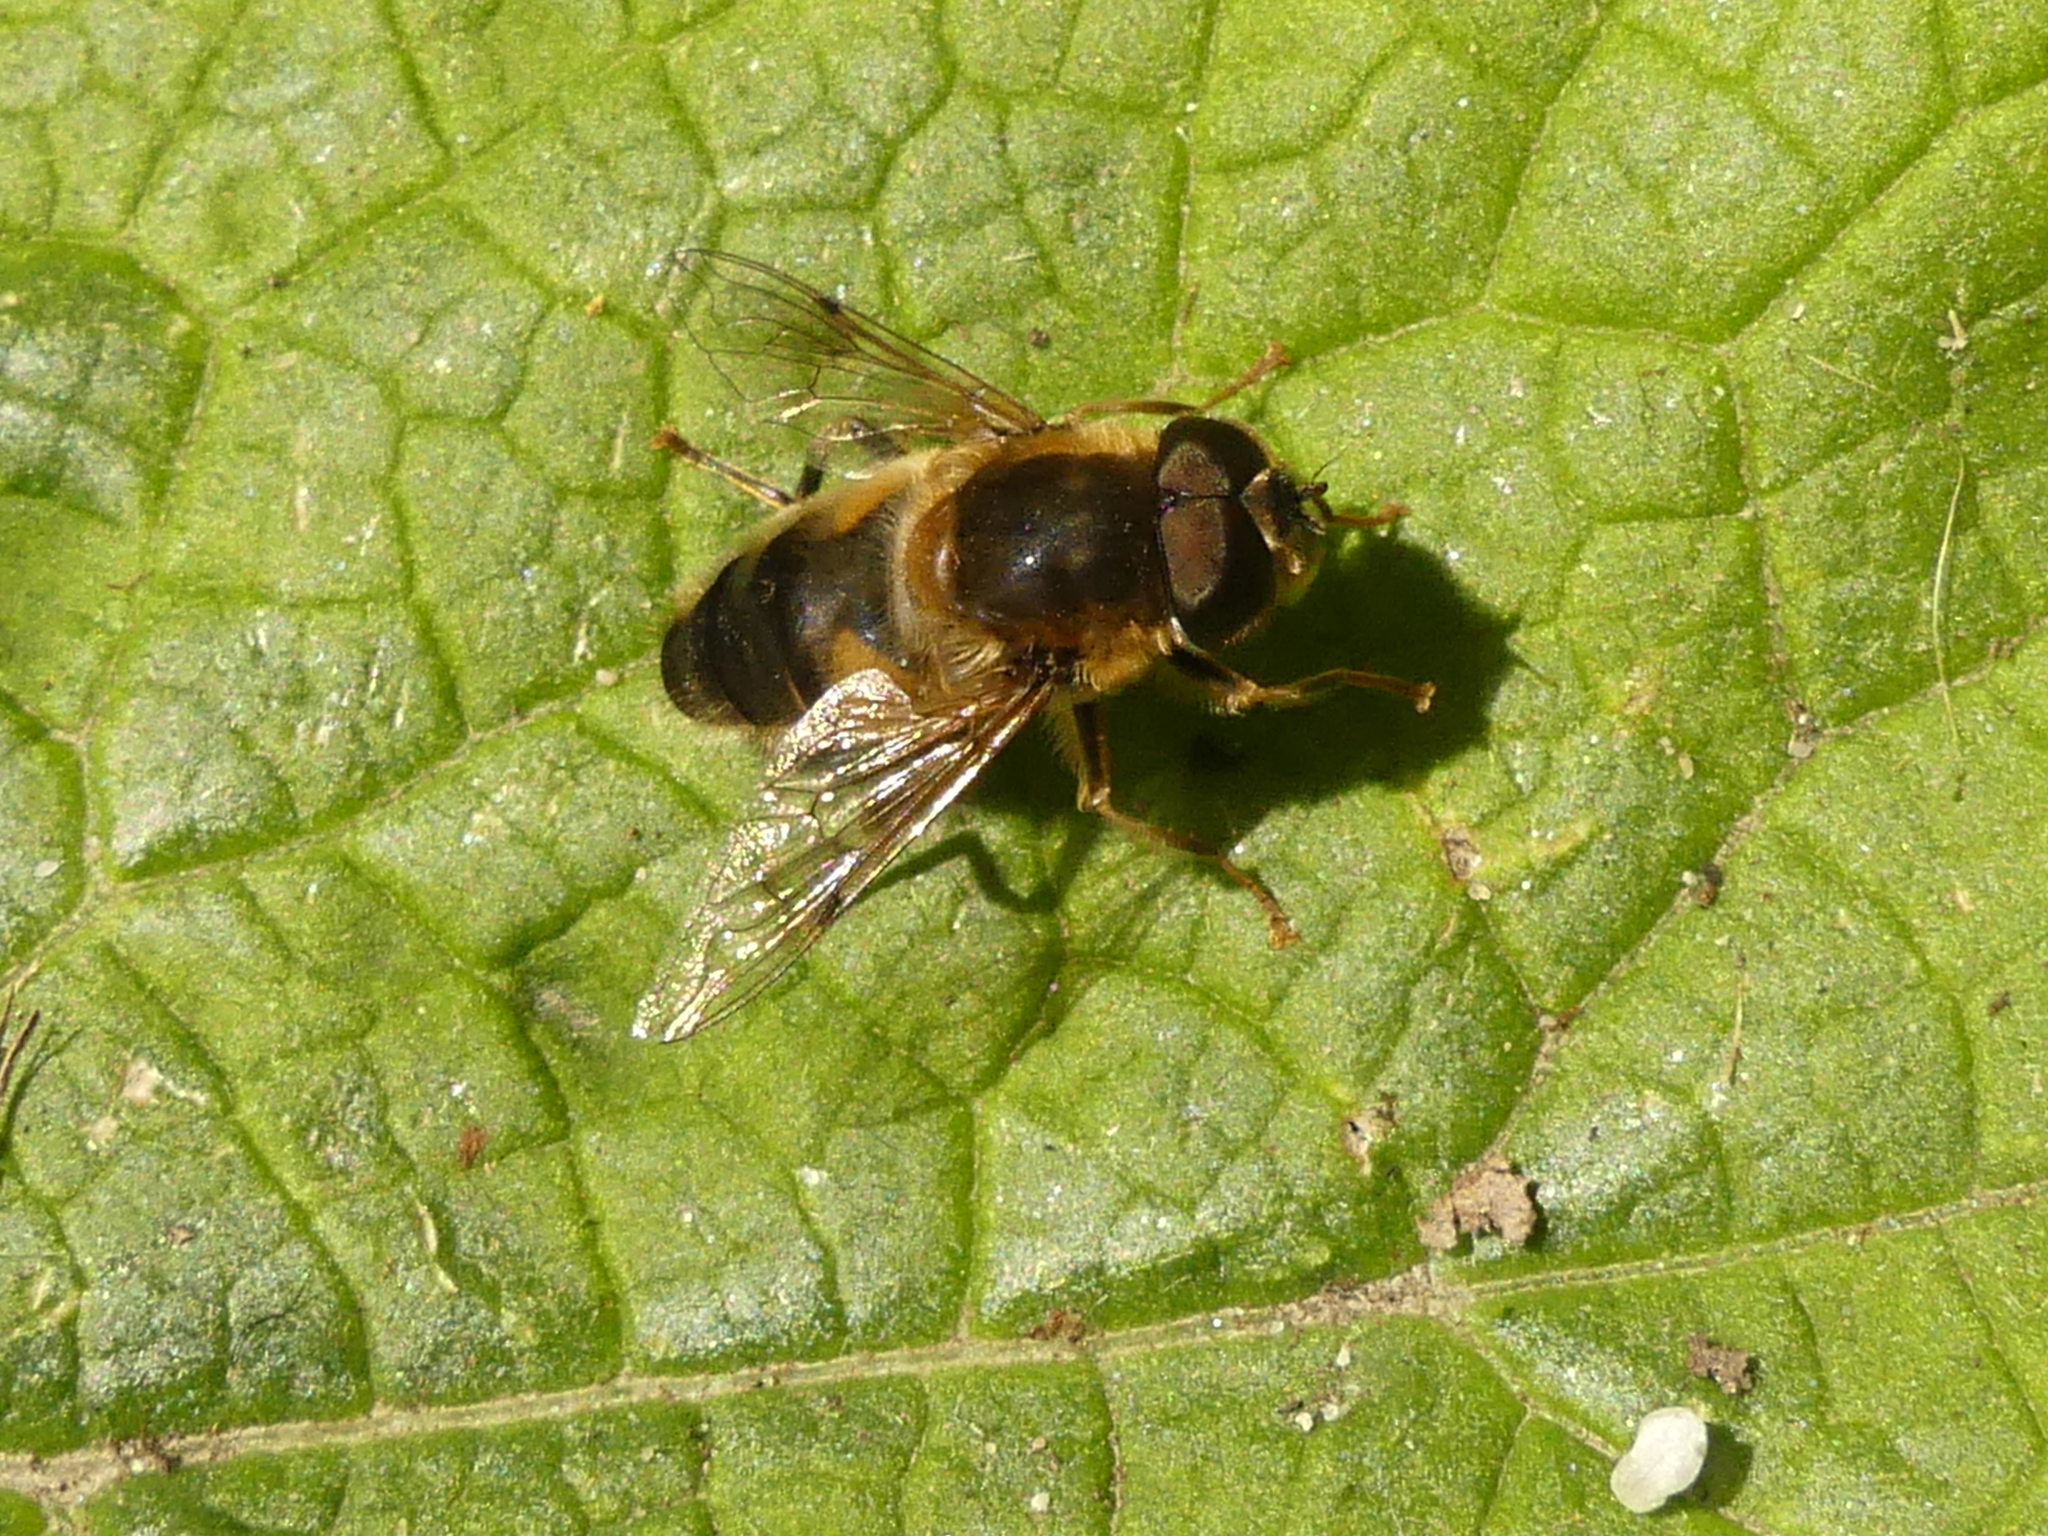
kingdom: Animalia
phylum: Arthropoda
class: Insecta
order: Diptera
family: Syrphidae
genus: Eristalis
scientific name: Eristalis pertinax
